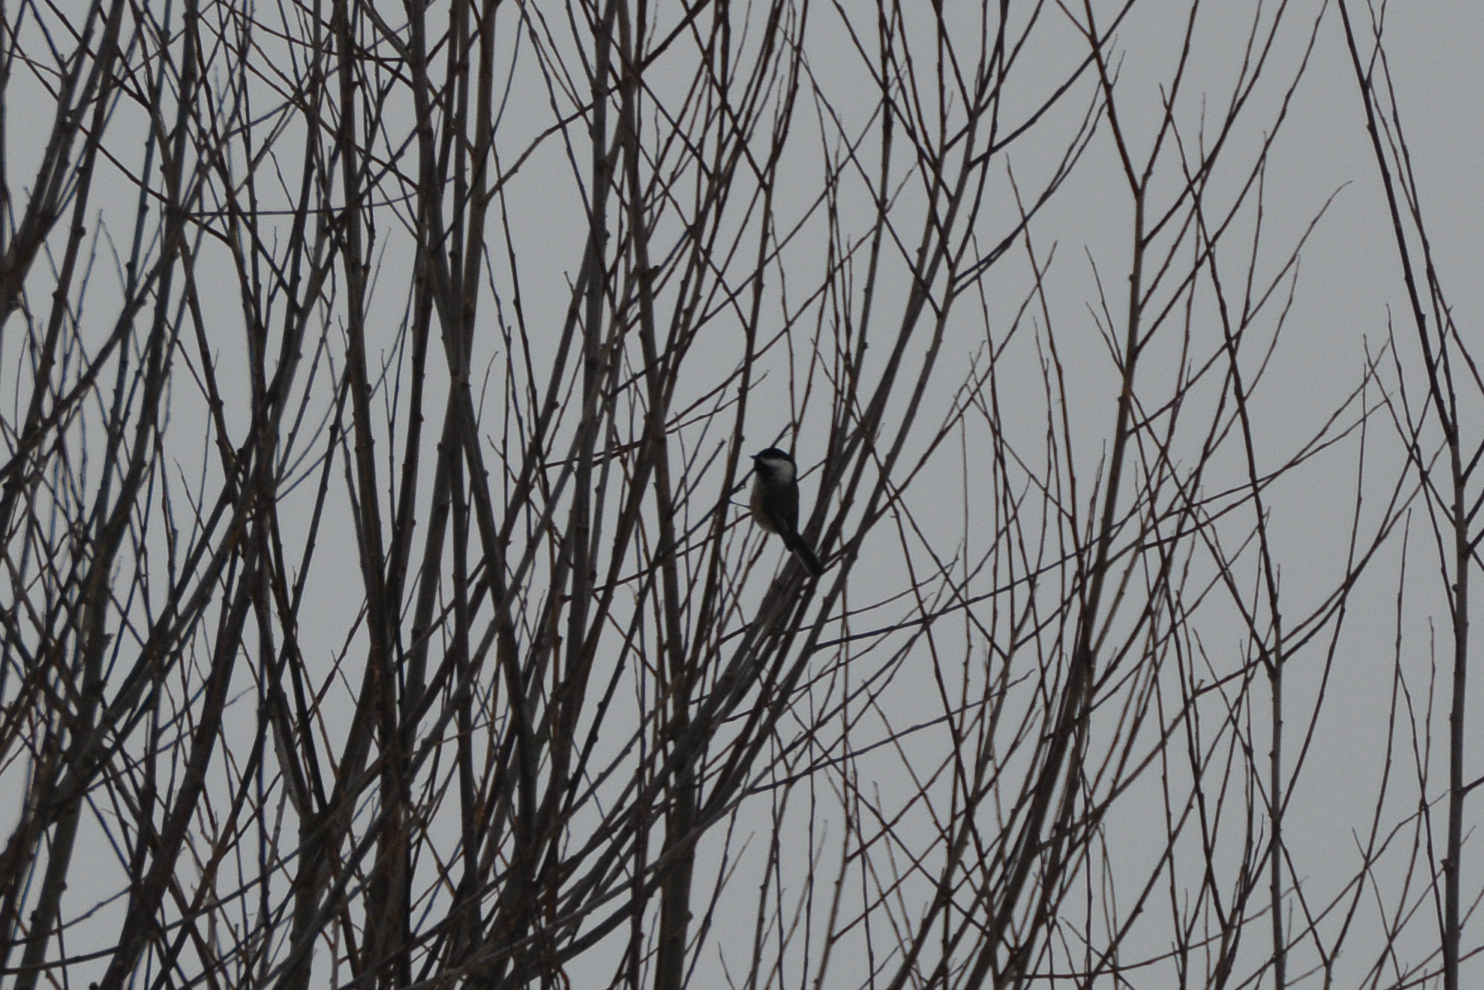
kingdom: Animalia
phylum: Chordata
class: Aves
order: Passeriformes
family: Paridae
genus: Poecile
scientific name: Poecile atricapillus
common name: Black-capped chickadee
